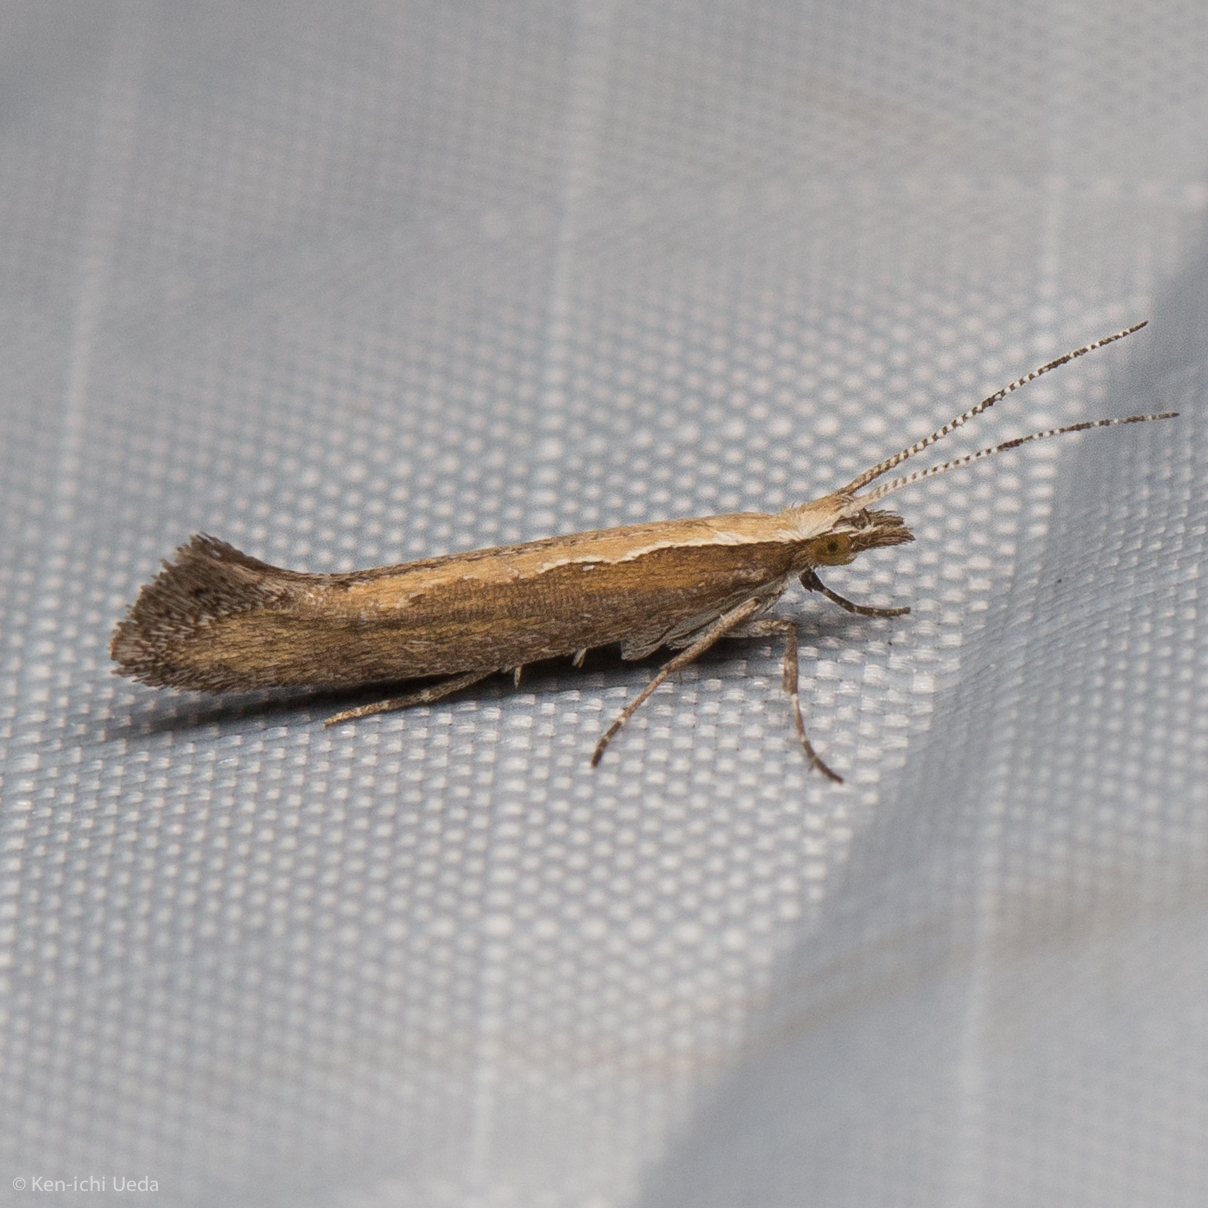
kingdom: Animalia
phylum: Arthropoda
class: Insecta
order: Lepidoptera
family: Plutellidae
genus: Plutella
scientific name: Plutella xylostella
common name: Diamond-back moth
